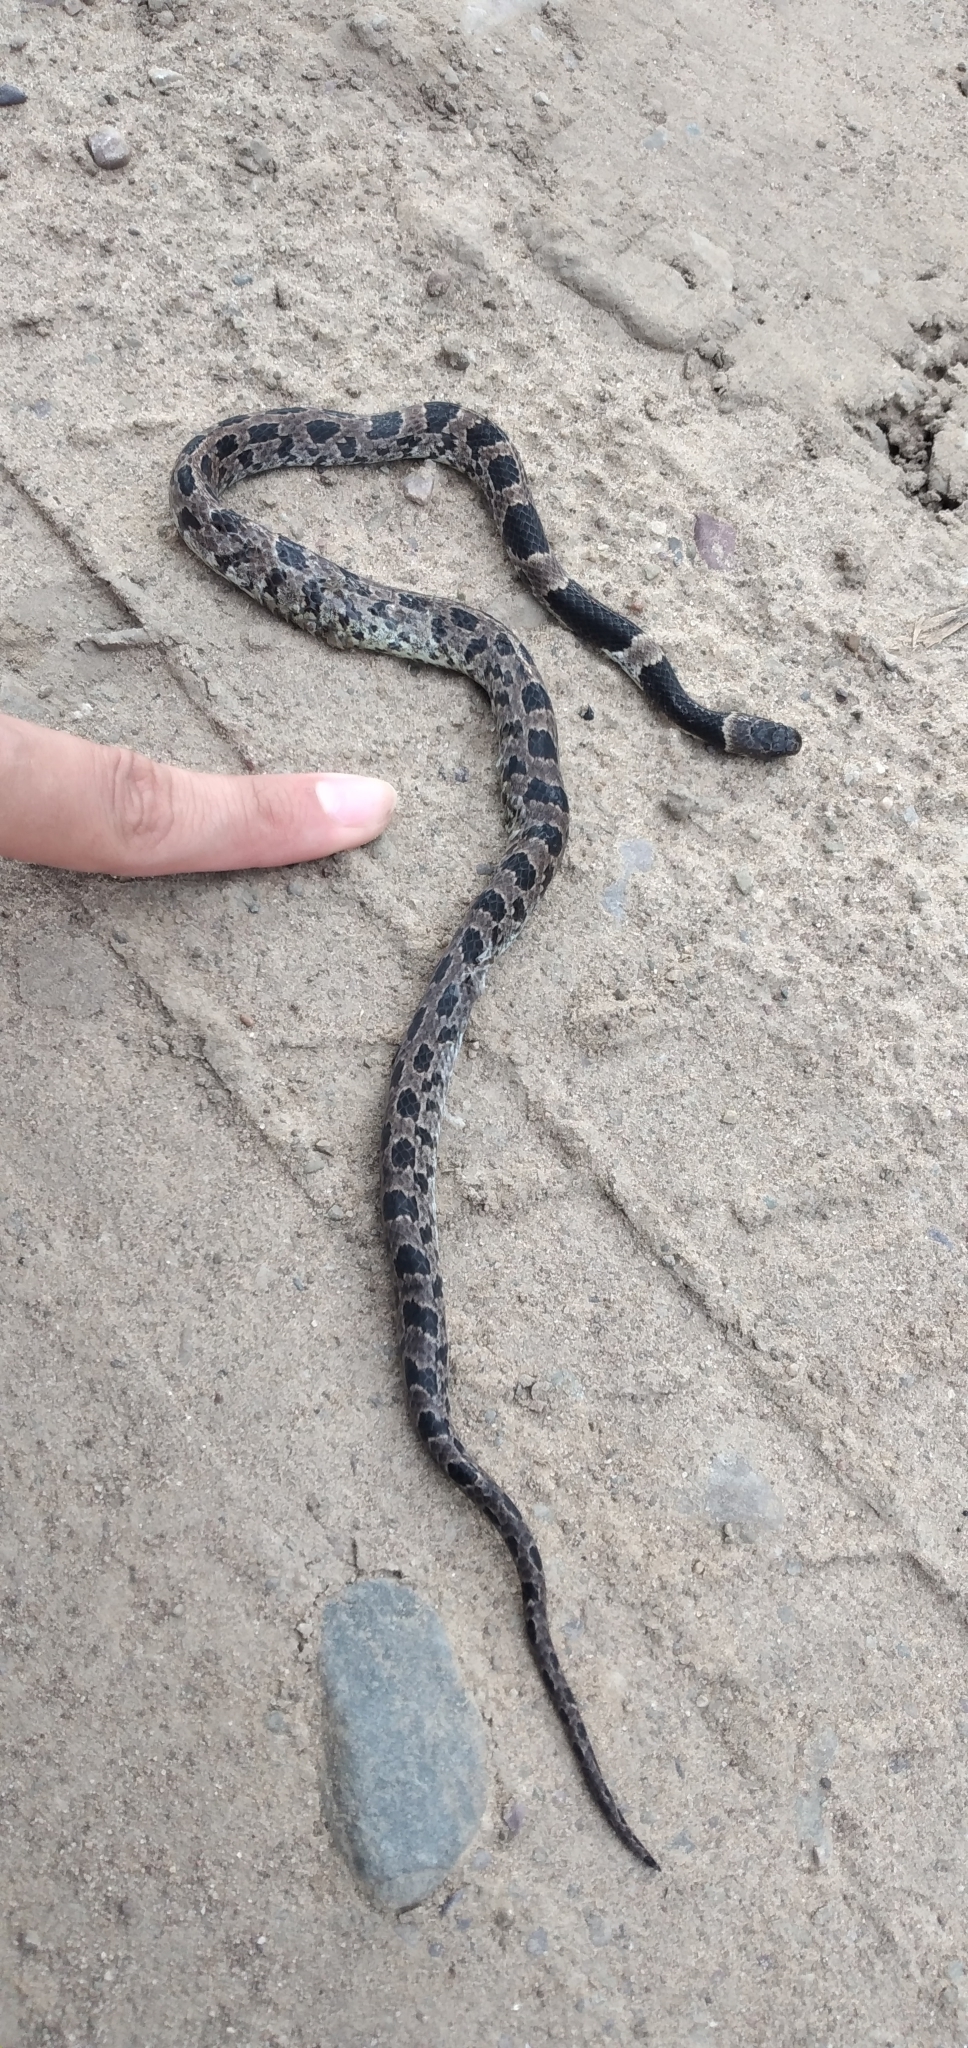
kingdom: Animalia
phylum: Chordata
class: Squamata
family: Colubridae
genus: Dipsas
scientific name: Dipsas turgida
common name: Bolivian tree snake
